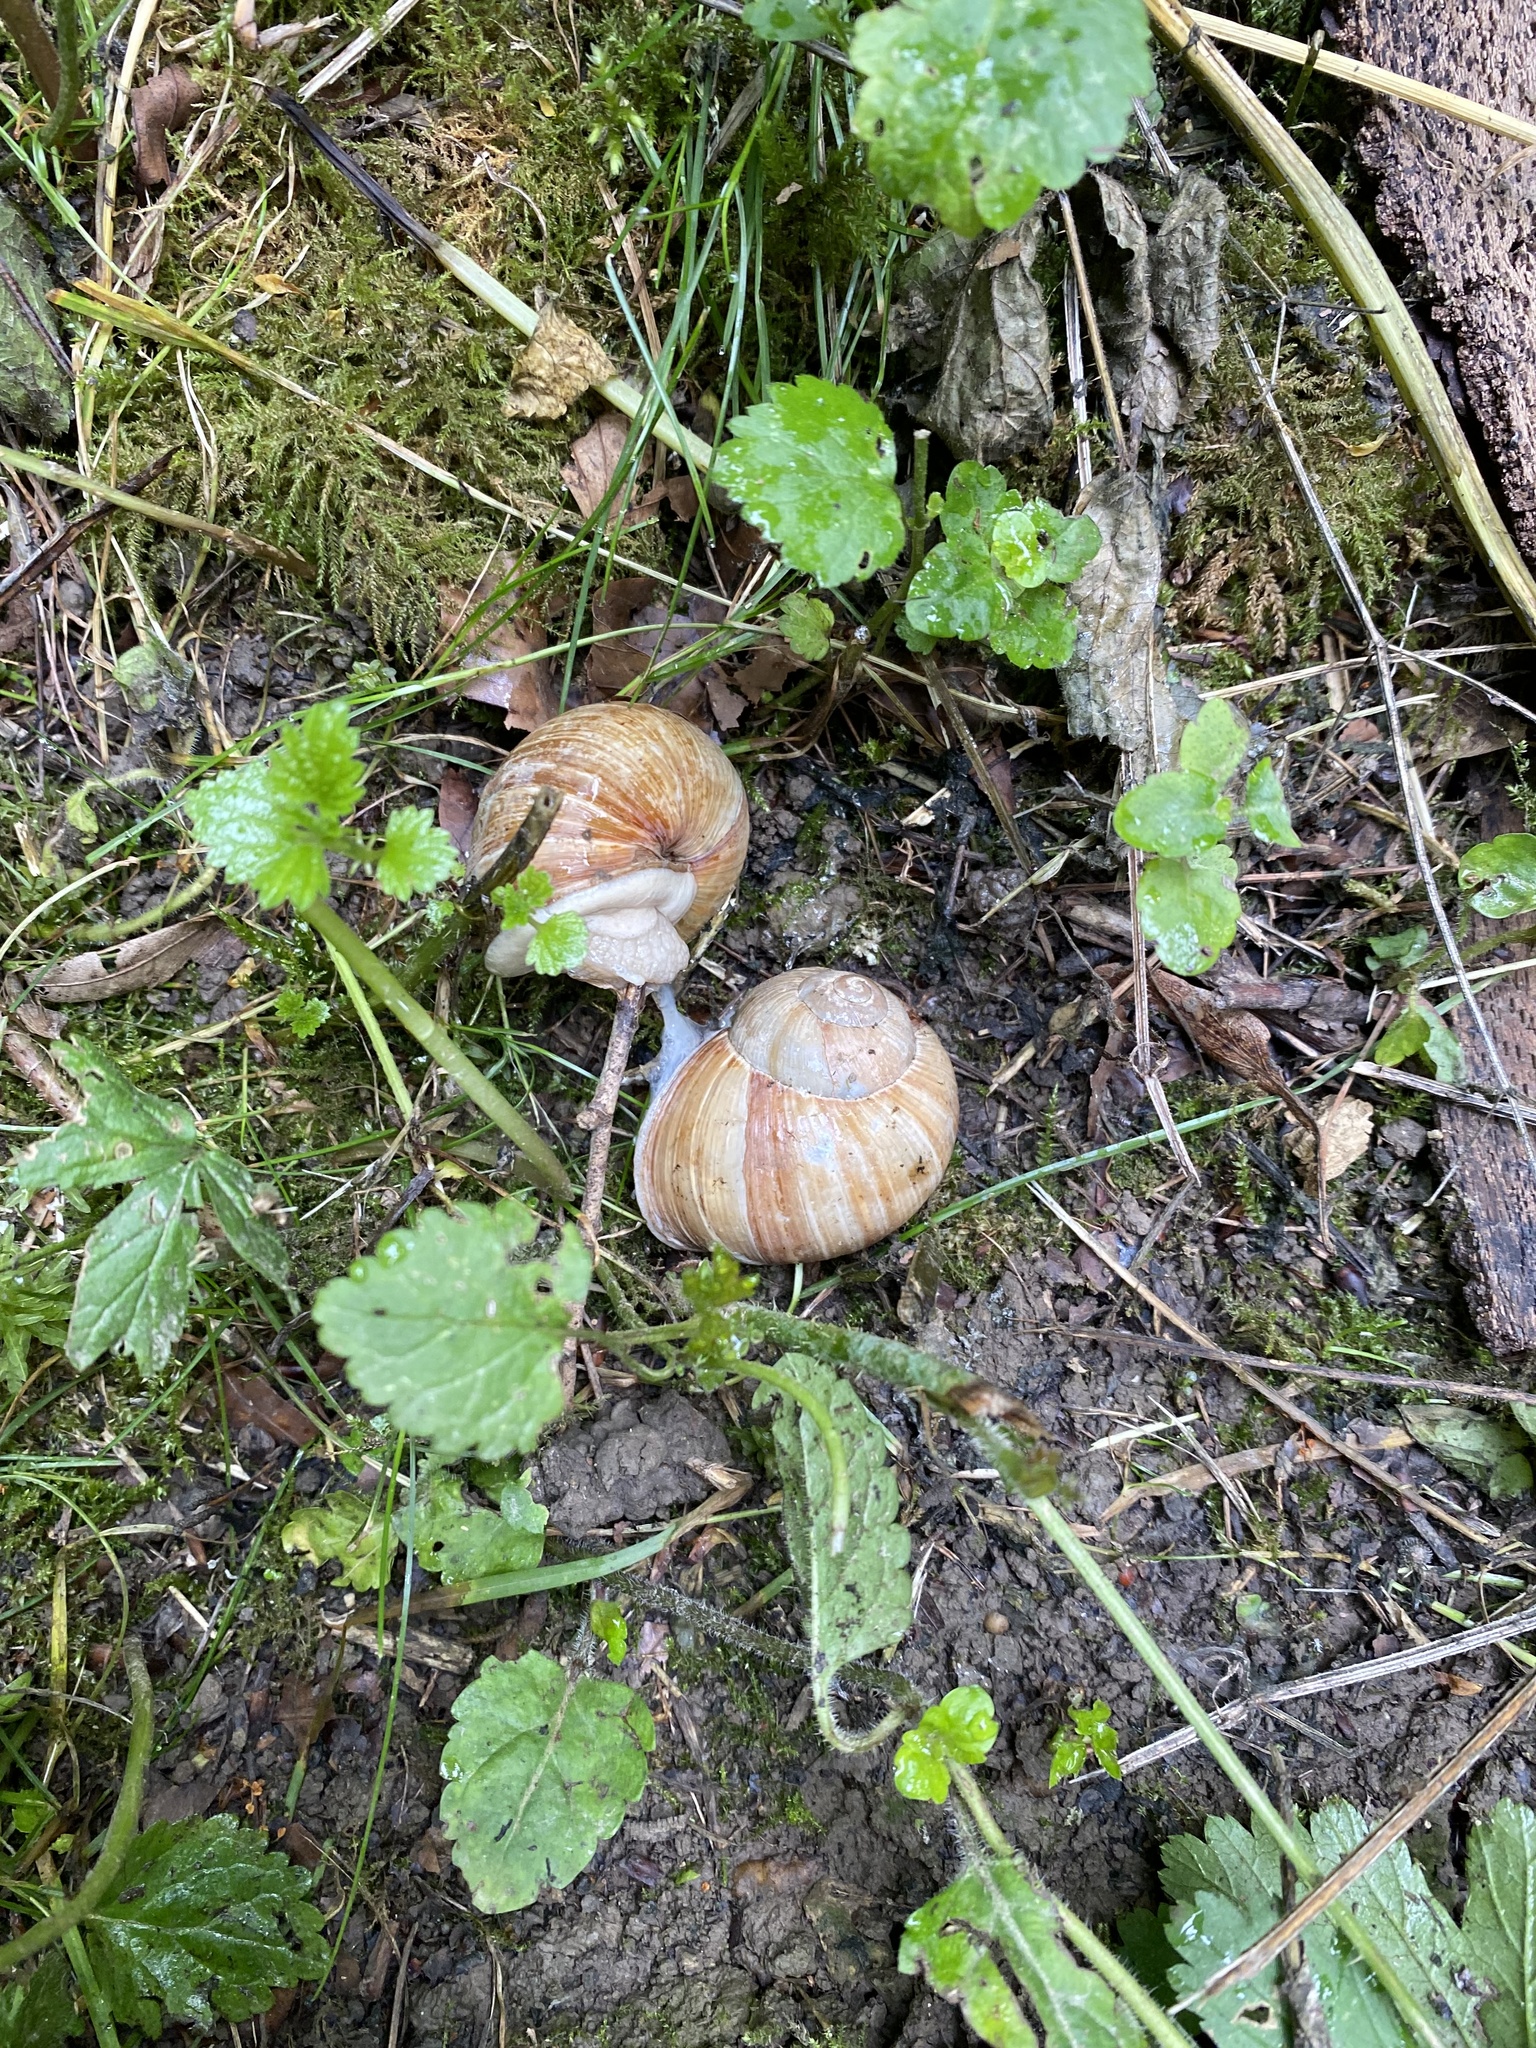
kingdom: Animalia
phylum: Mollusca
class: Gastropoda
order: Stylommatophora
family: Helicidae
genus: Helix
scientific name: Helix pomatia
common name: Roman snail
